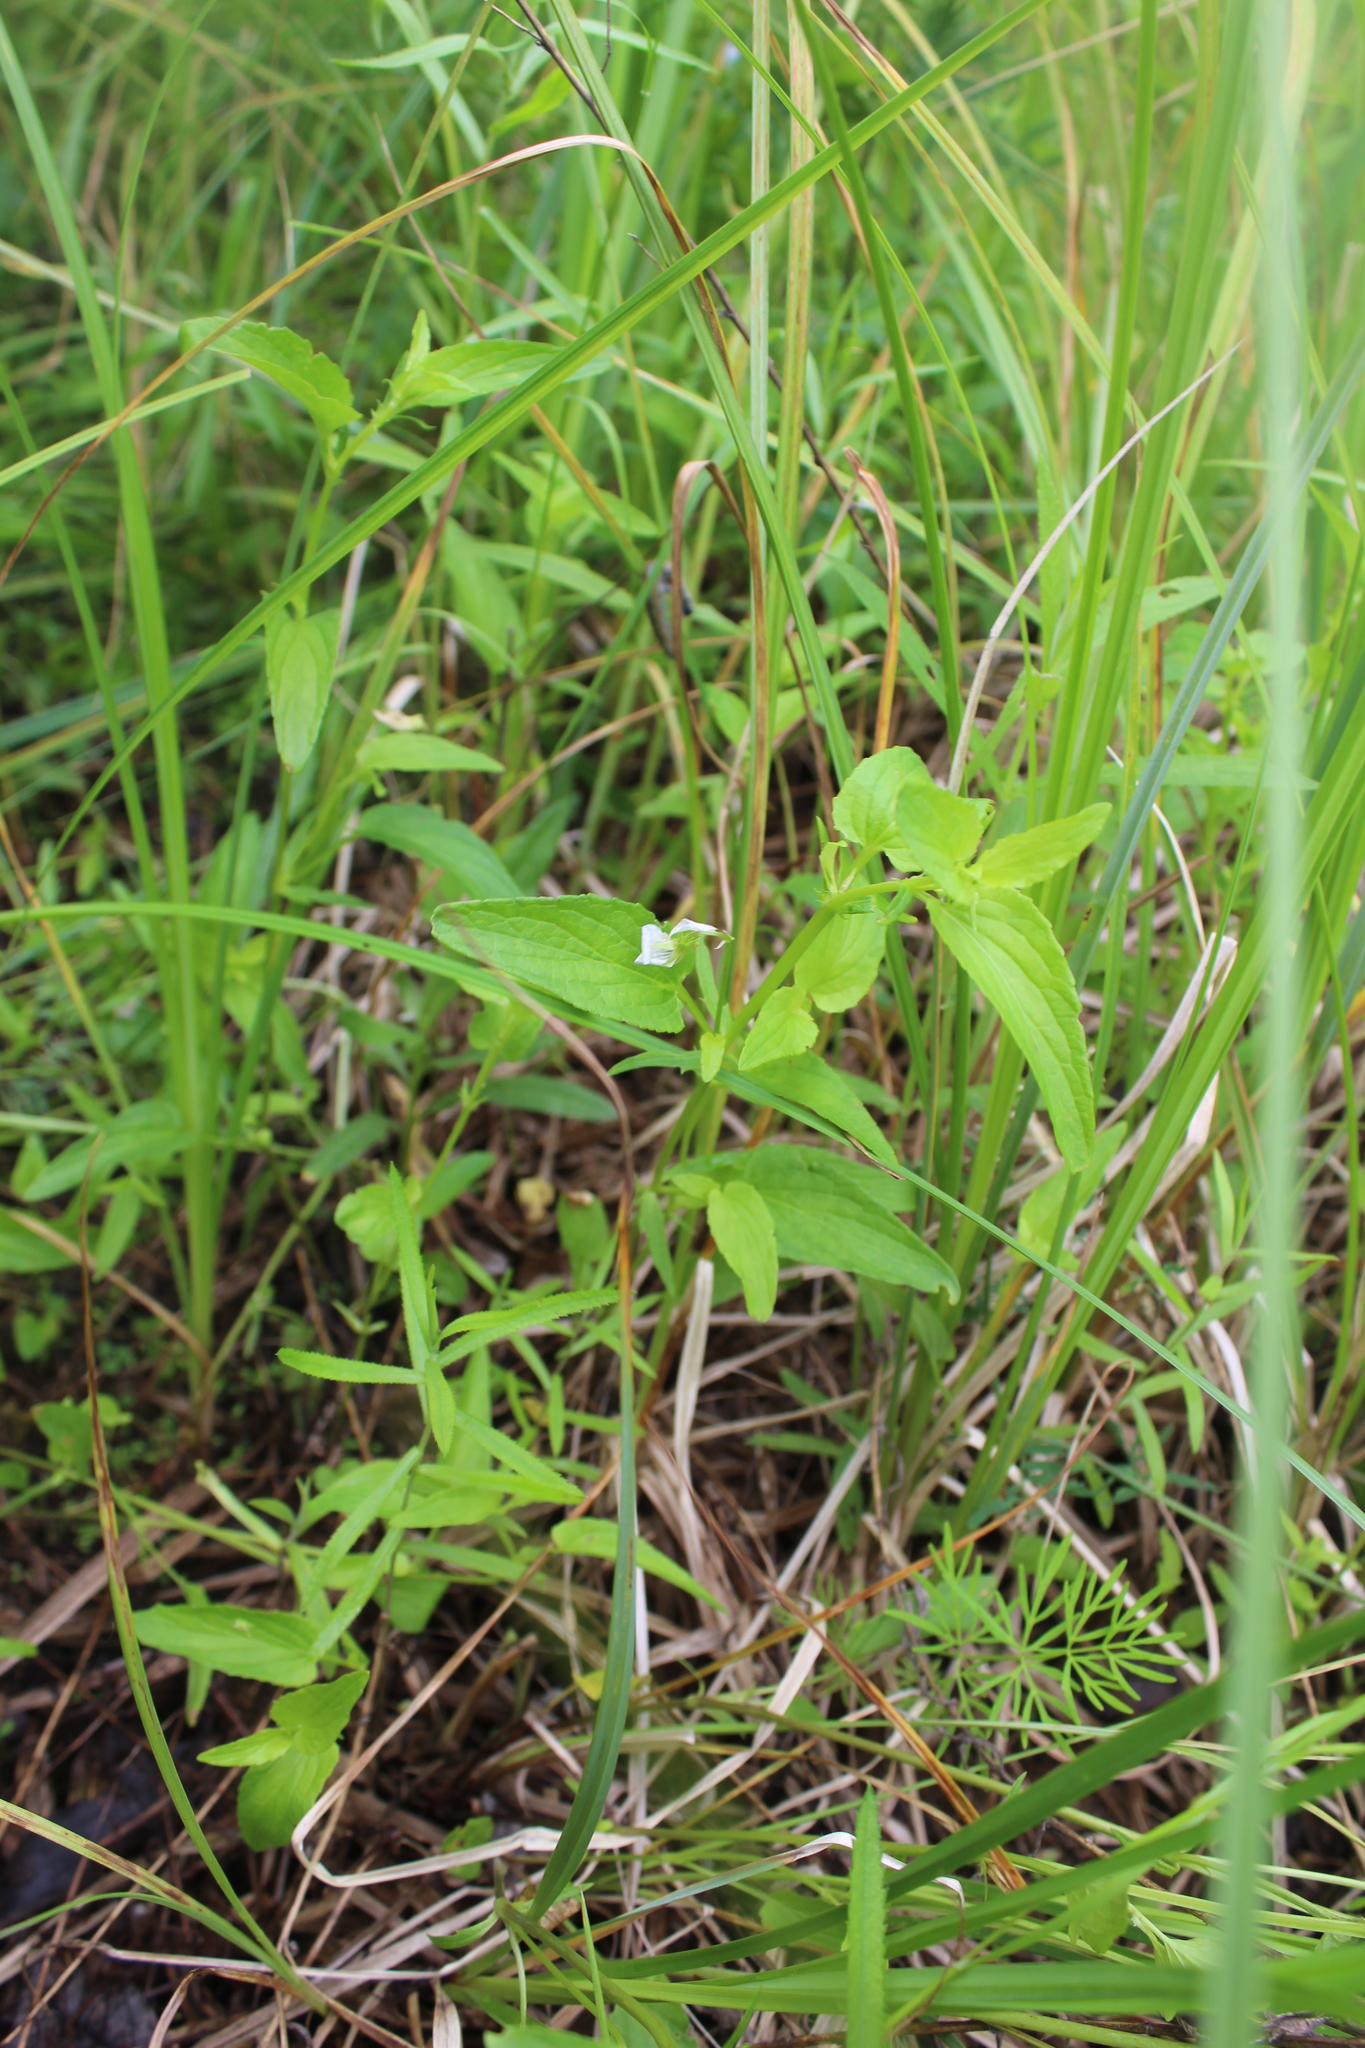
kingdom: Plantae
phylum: Tracheophyta
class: Magnoliopsida
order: Malpighiales
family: Violaceae
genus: Viola
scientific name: Viola stagnina
